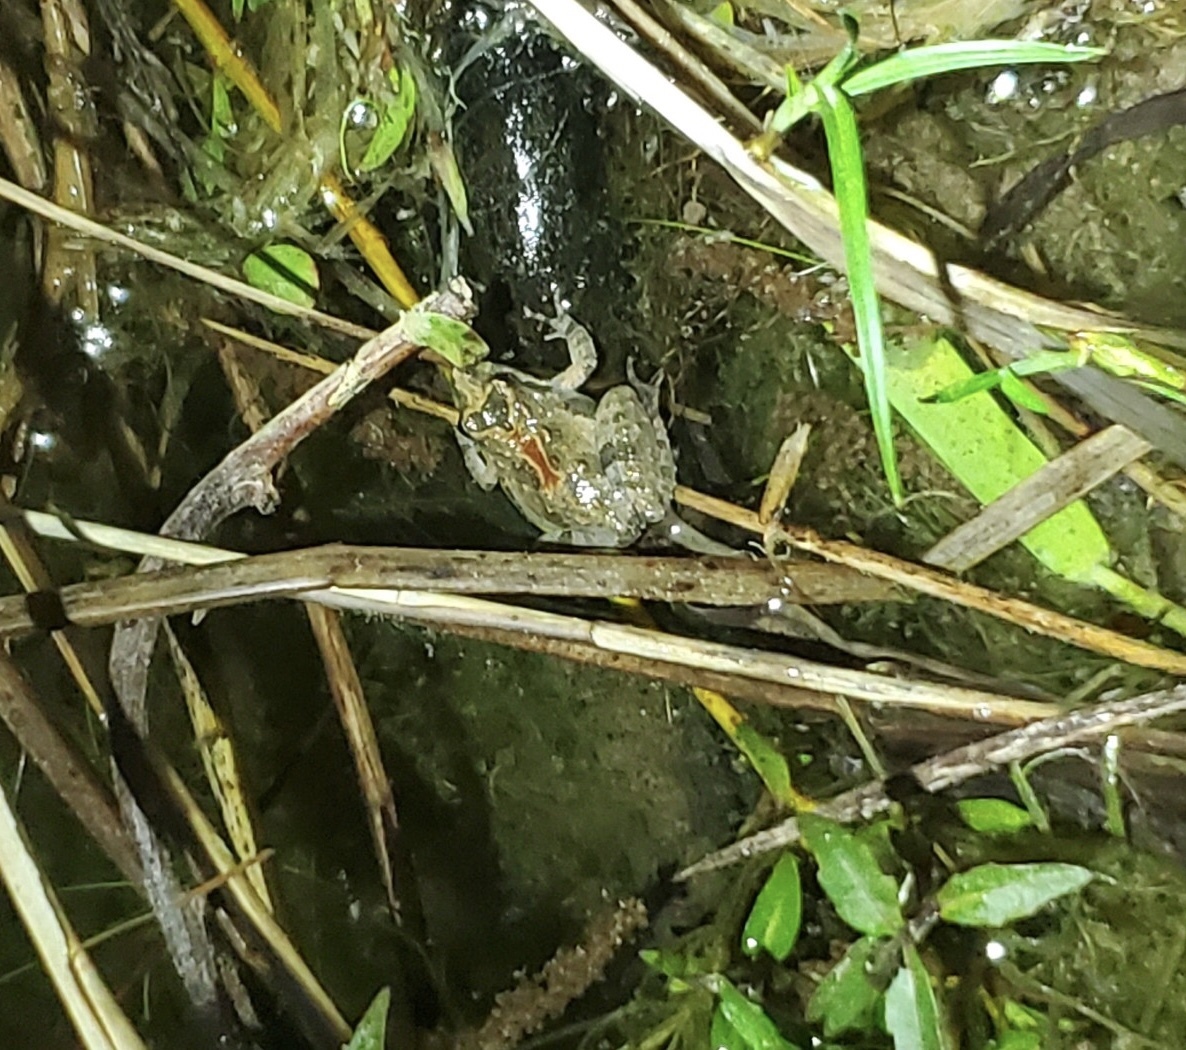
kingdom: Animalia
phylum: Chordata
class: Amphibia
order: Anura
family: Hylidae
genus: Acris
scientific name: Acris crepitans
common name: Northern cricket frog
